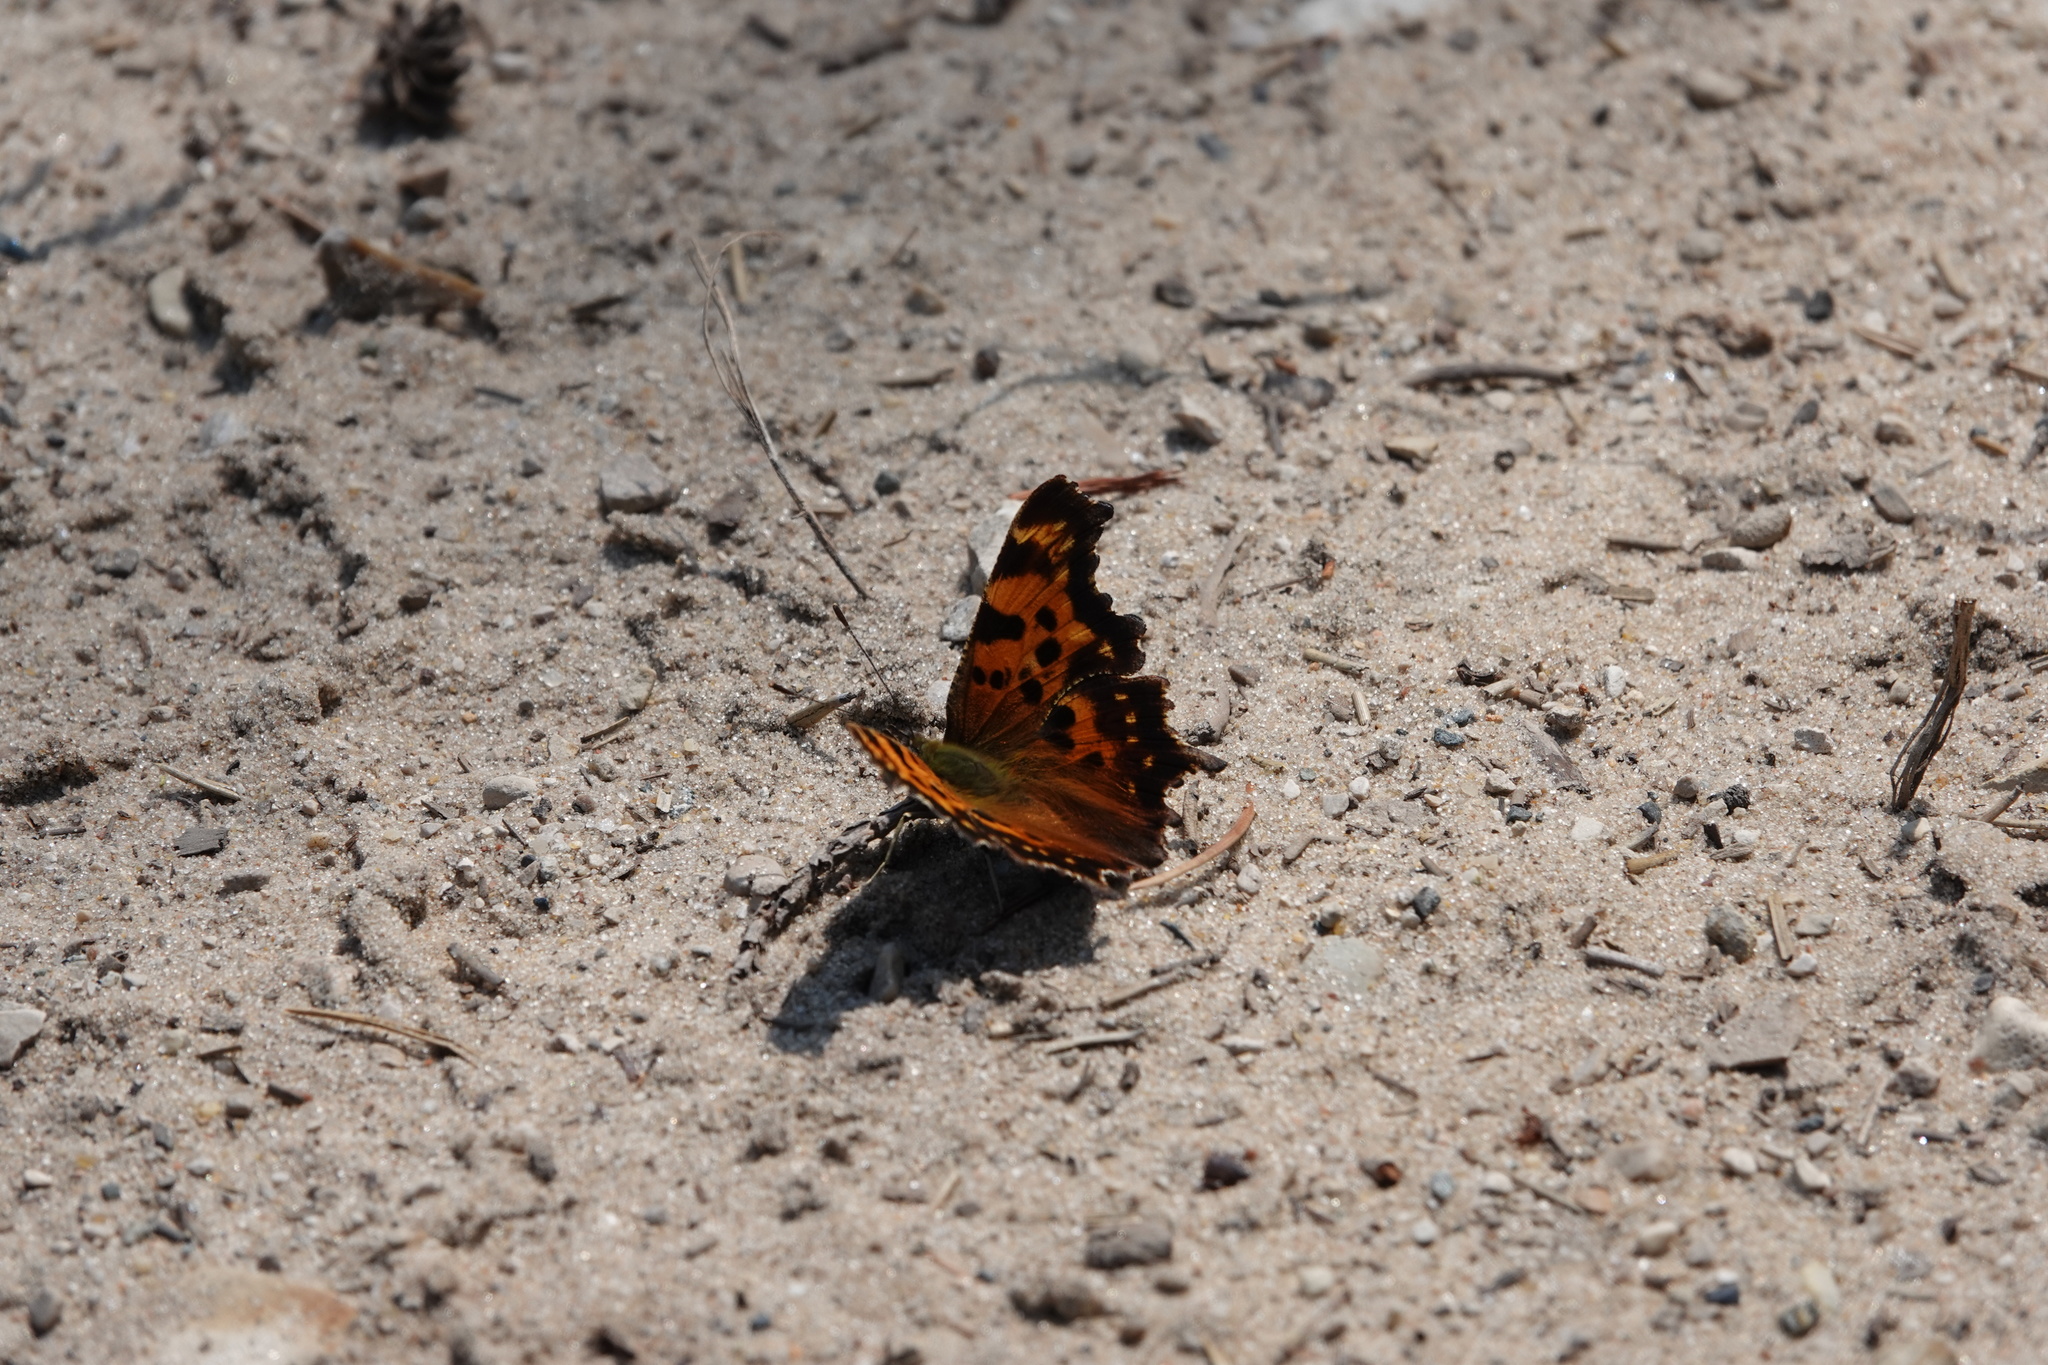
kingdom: Animalia
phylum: Arthropoda
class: Insecta
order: Lepidoptera
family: Nymphalidae
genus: Polygonia
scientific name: Polygonia faunus
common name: Green comma
